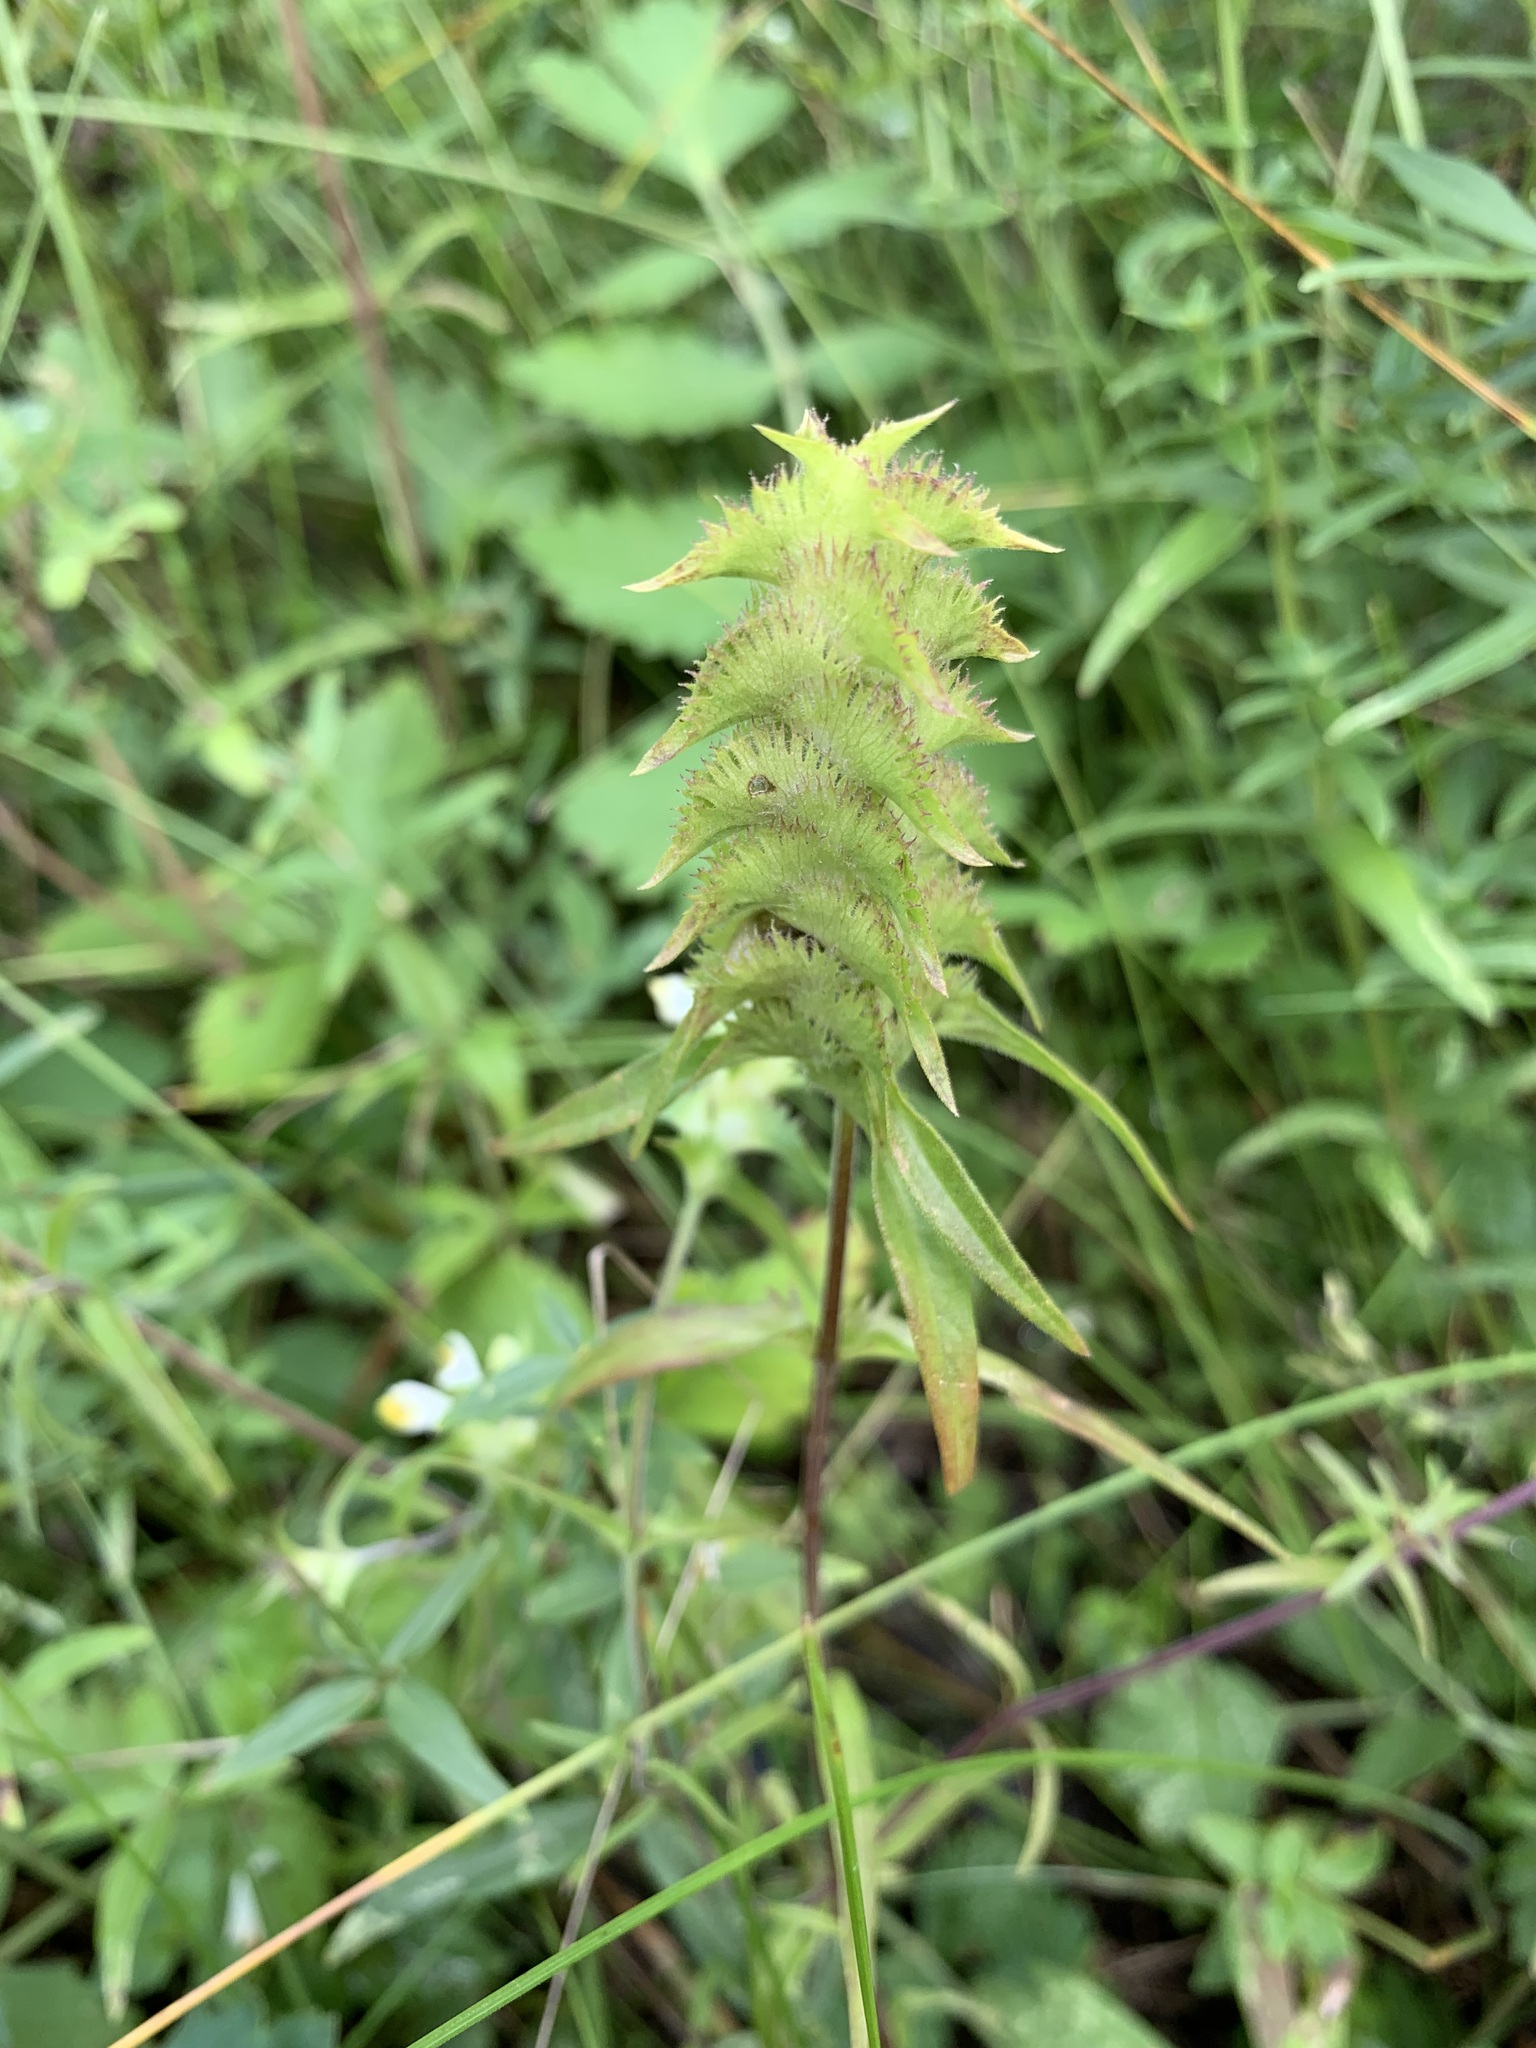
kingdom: Plantae
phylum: Tracheophyta
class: Magnoliopsida
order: Lamiales
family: Orobanchaceae
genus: Melampyrum
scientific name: Melampyrum cristatum
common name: Crested cow-wheat
